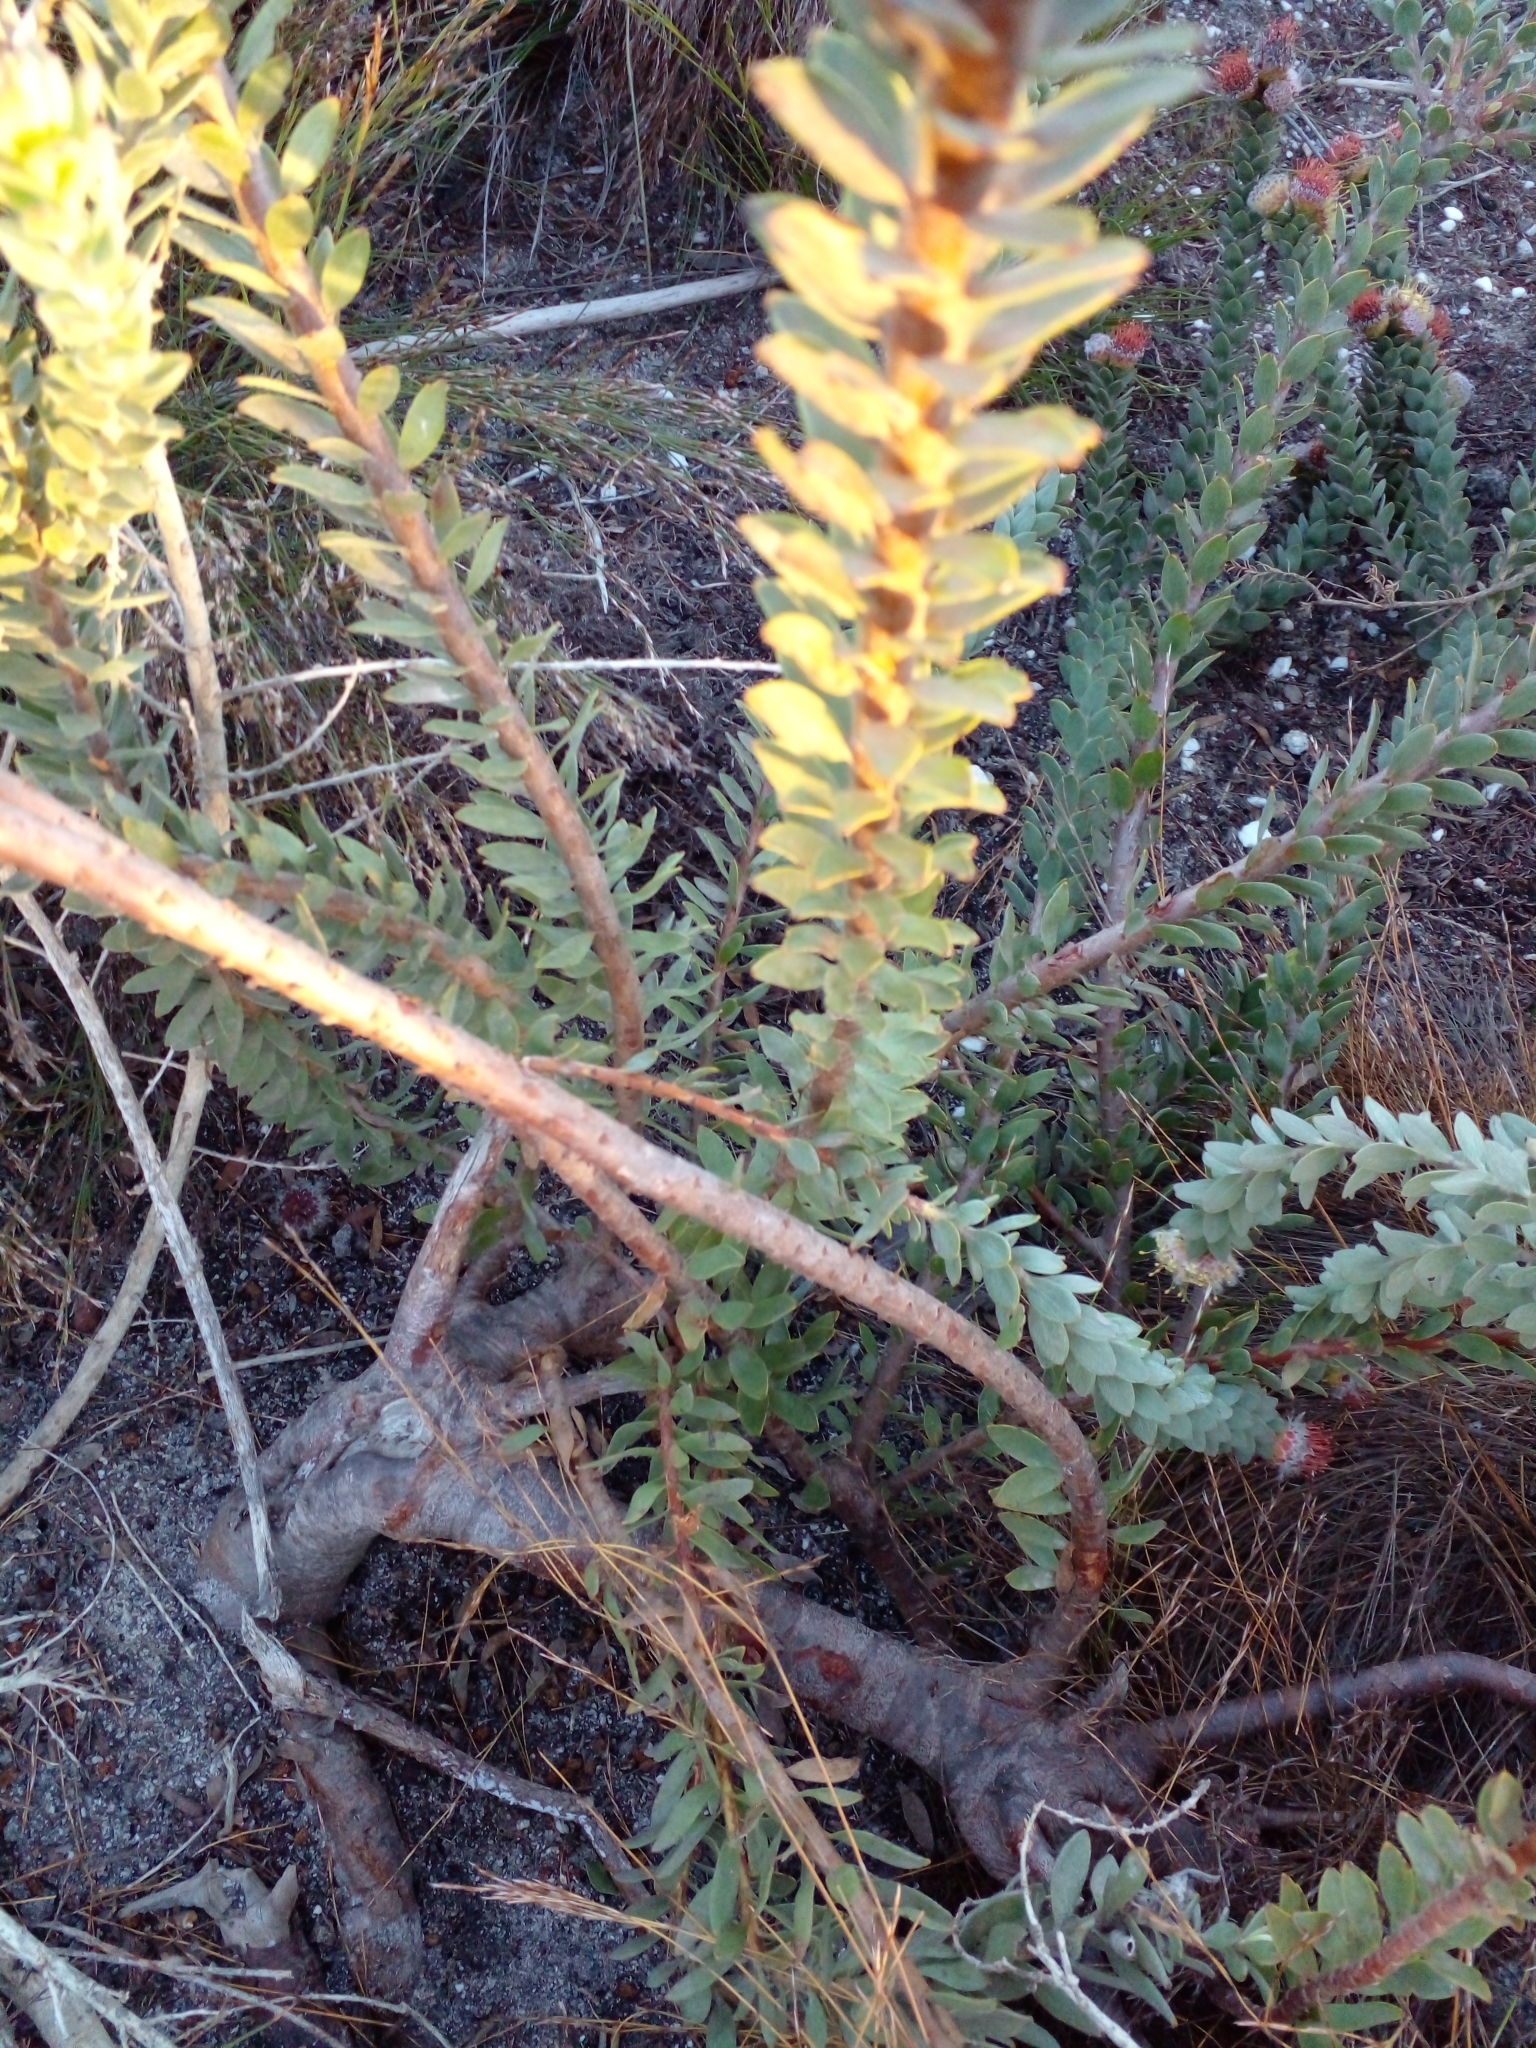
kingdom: Plantae
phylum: Tracheophyta
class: Magnoliopsida
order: Proteales
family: Proteaceae
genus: Leucospermum
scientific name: Leucospermum truncatulum
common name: Oval-leaf pincushion
